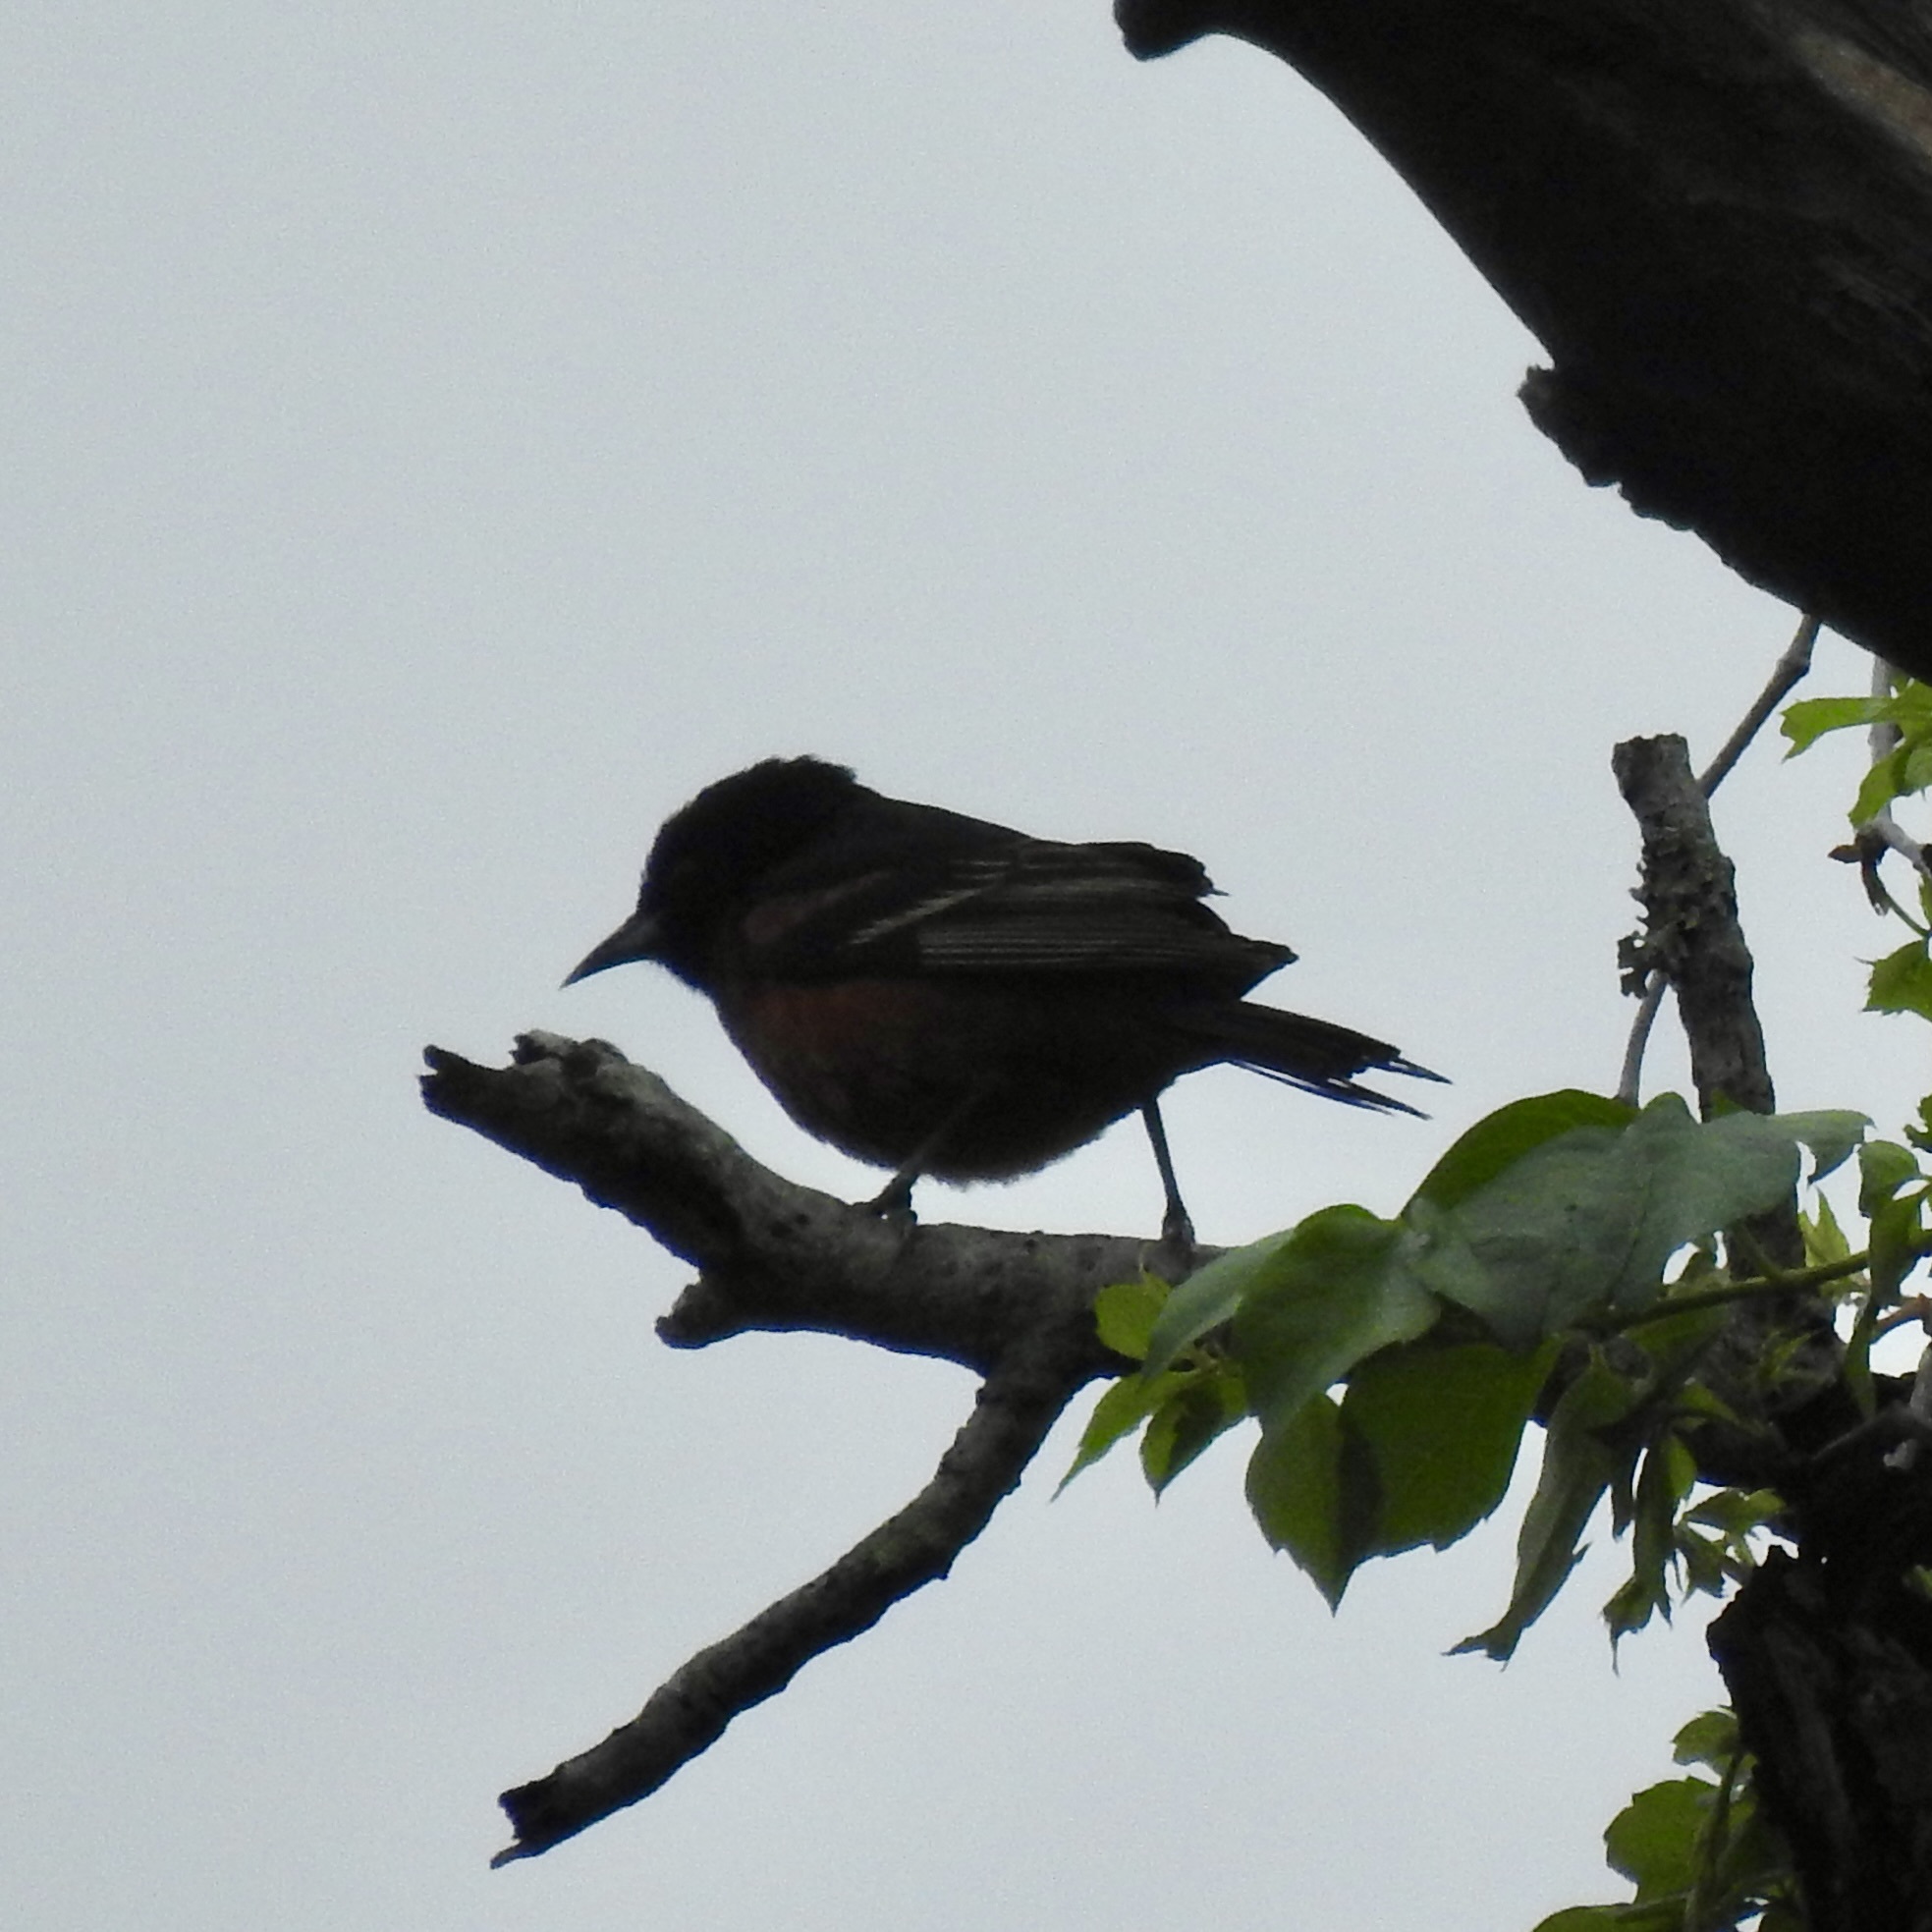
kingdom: Animalia
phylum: Chordata
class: Aves
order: Passeriformes
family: Icteridae
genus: Icterus
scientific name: Icterus spurius
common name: Orchard oriole
